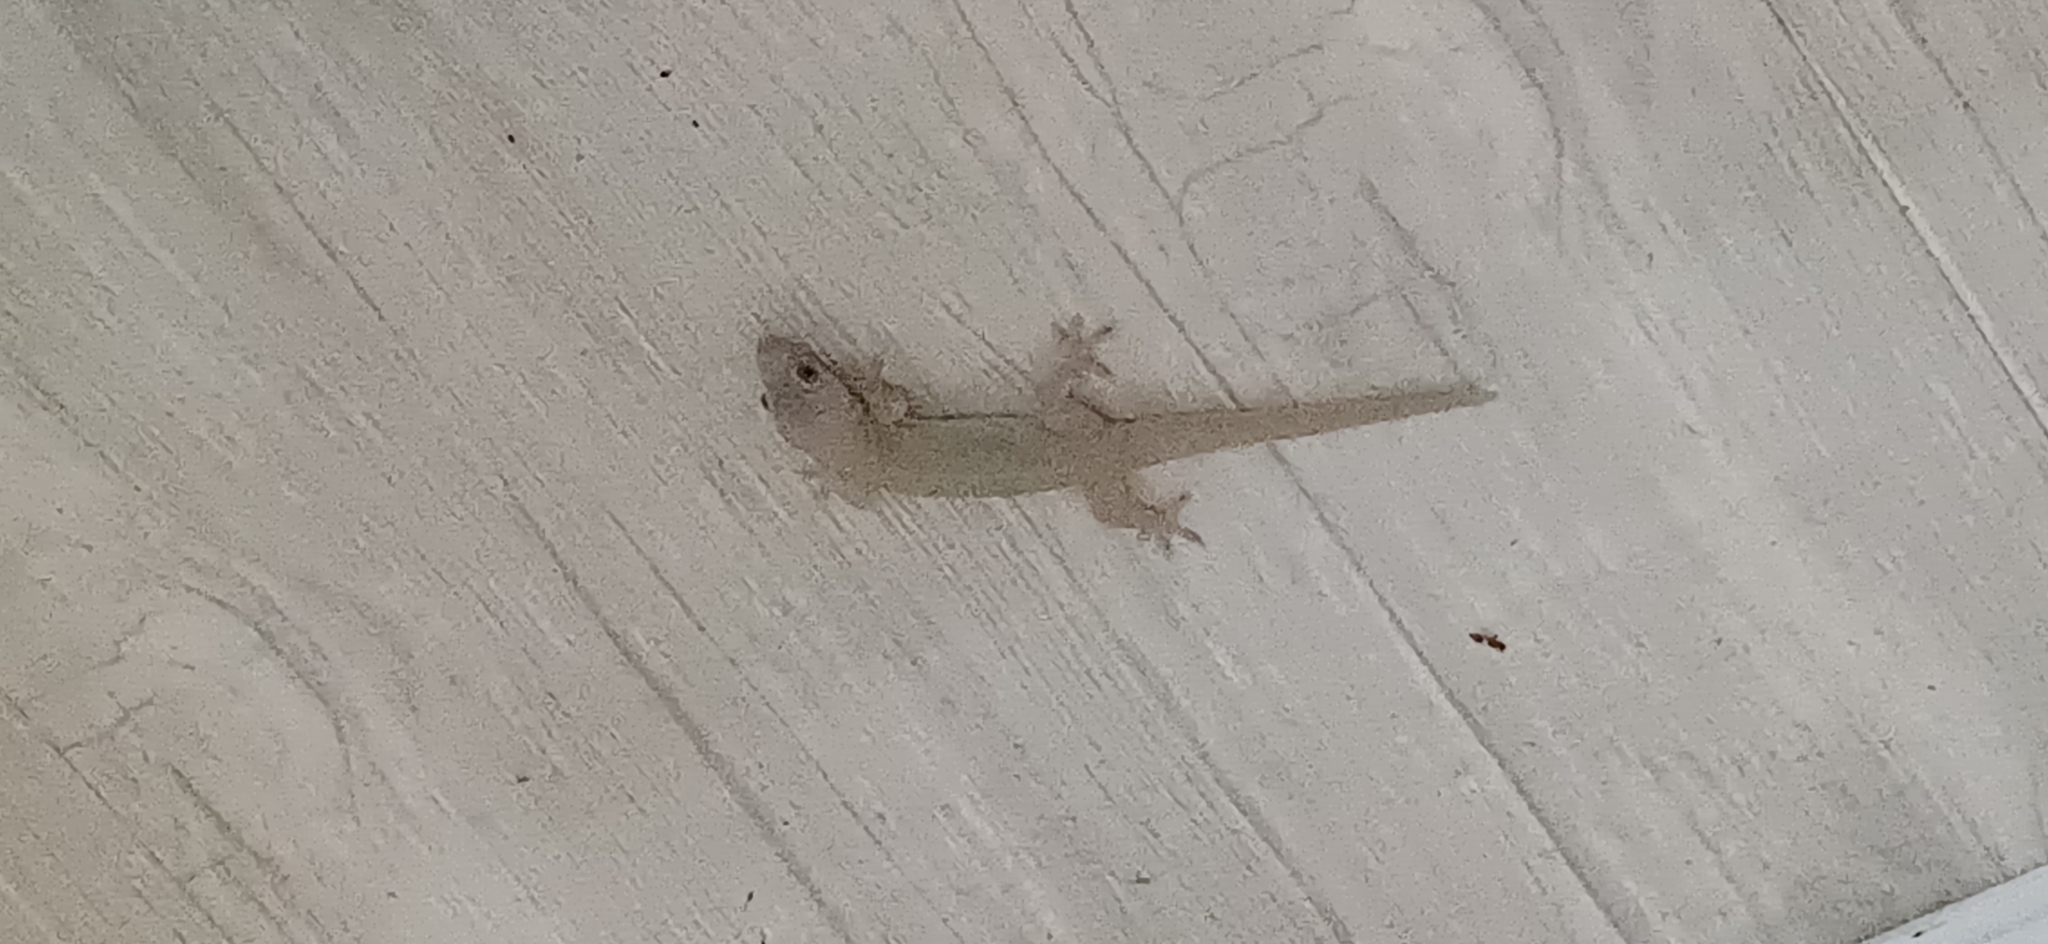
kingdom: Animalia
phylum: Chordata
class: Squamata
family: Gekkonidae
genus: Hemidactylus
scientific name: Hemidactylus frenatus
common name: Common house gecko
